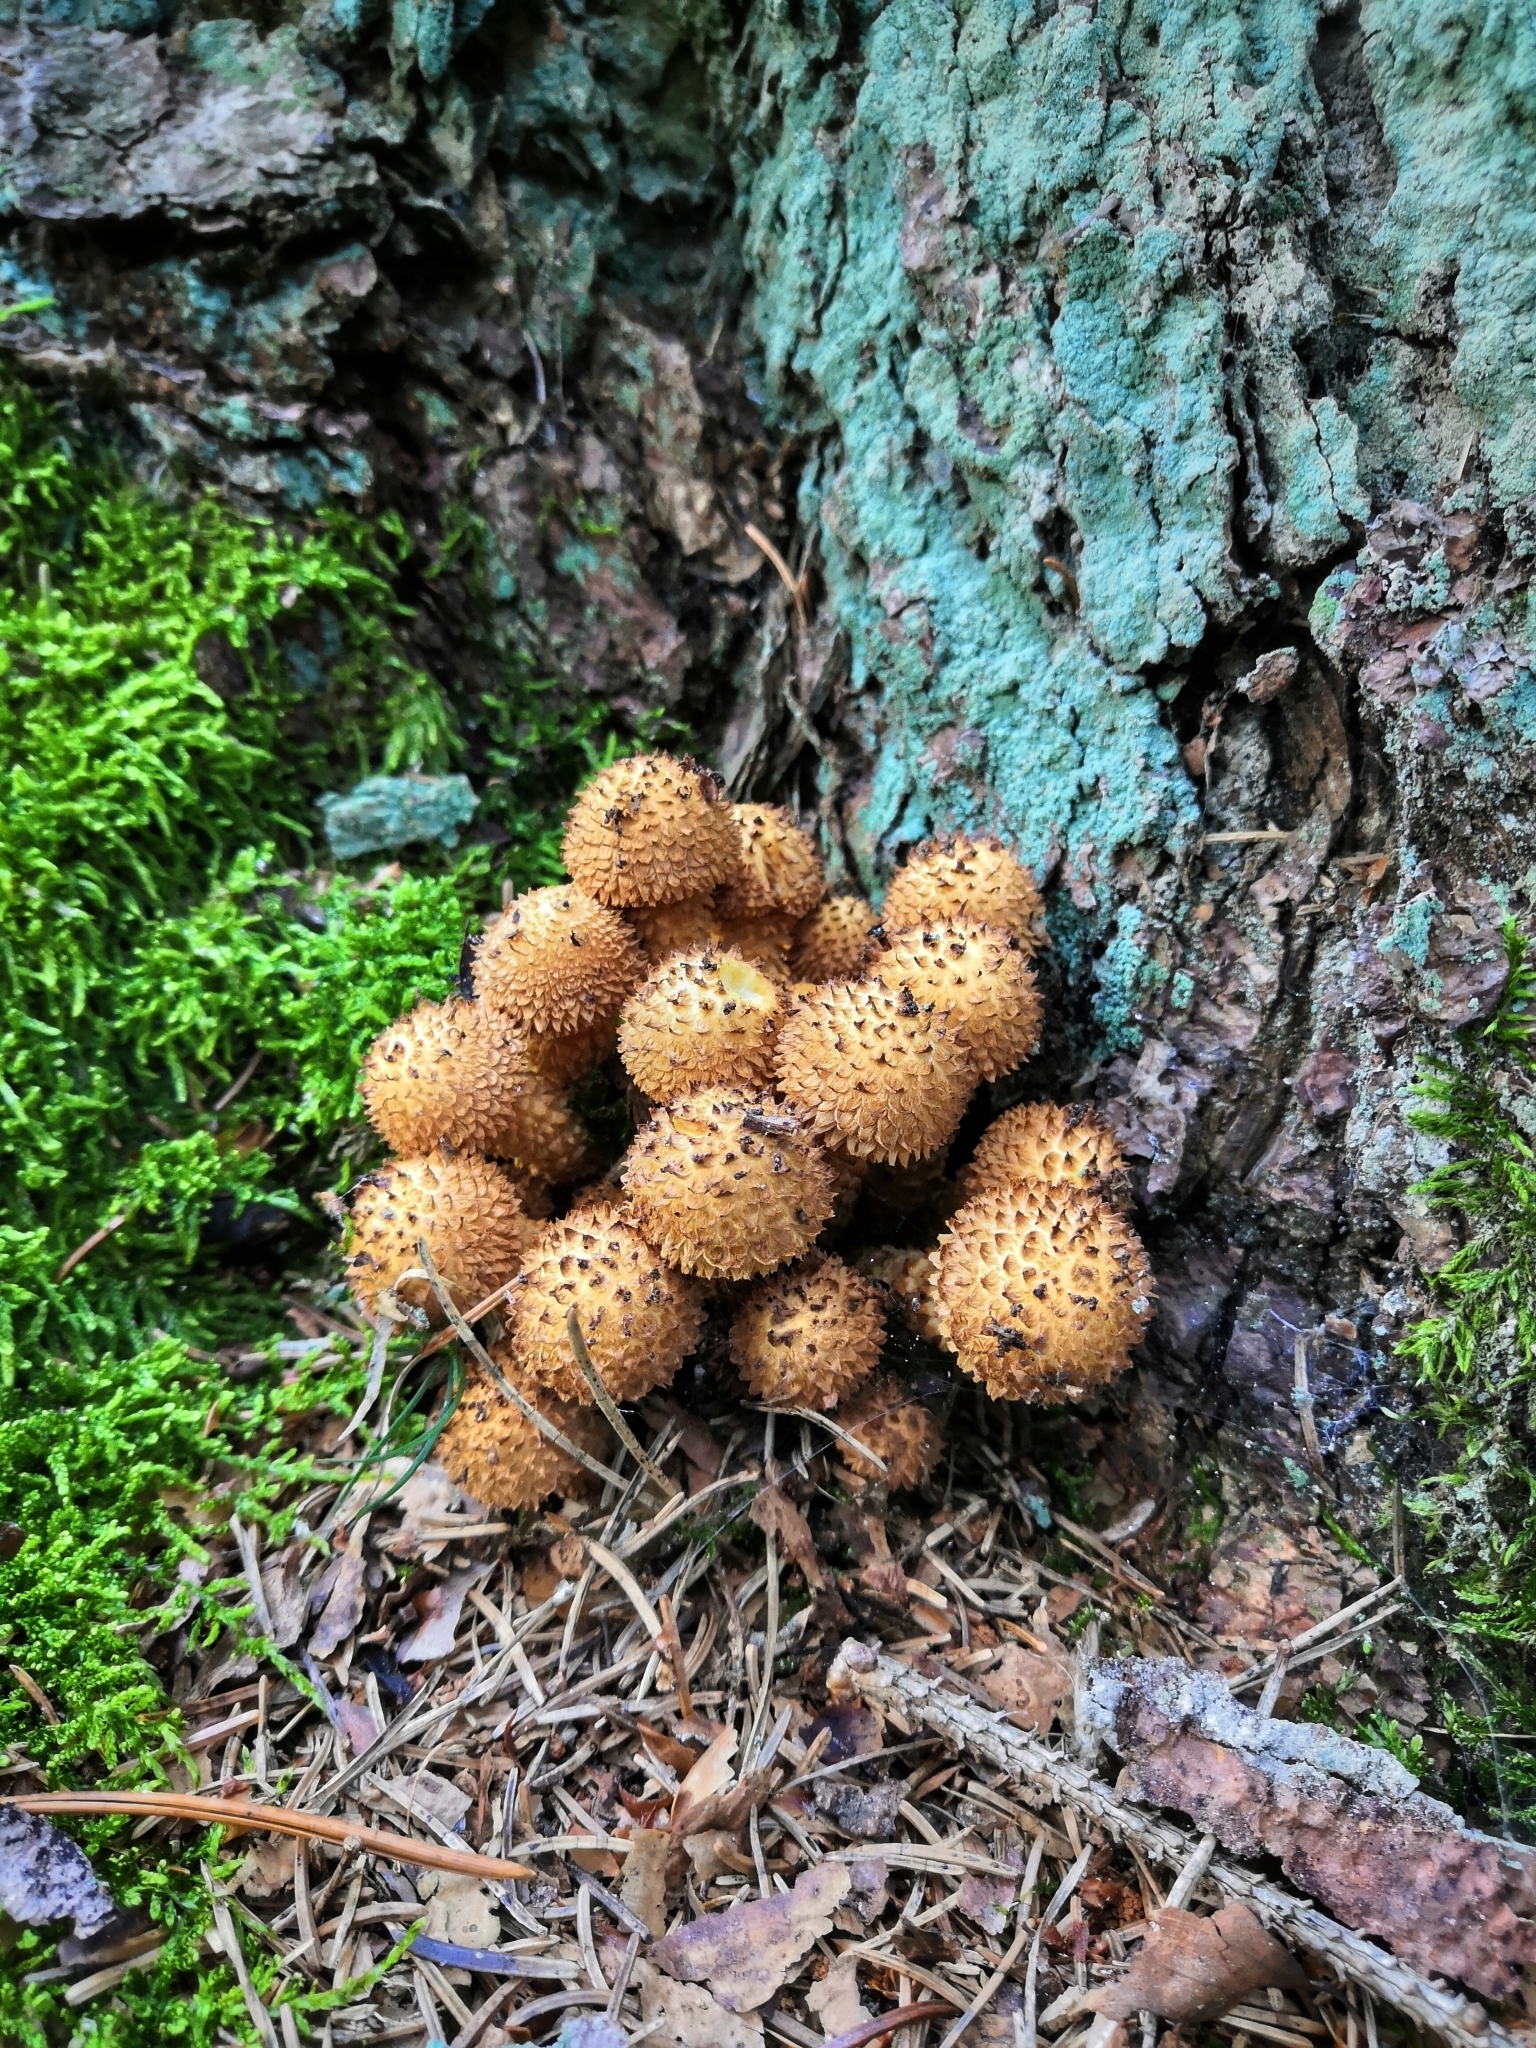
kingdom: Fungi
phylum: Basidiomycota
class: Agaricomycetes
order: Agaricales
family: Strophariaceae
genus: Pholiota
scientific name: Pholiota squarrosa
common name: Shaggy pholiota
